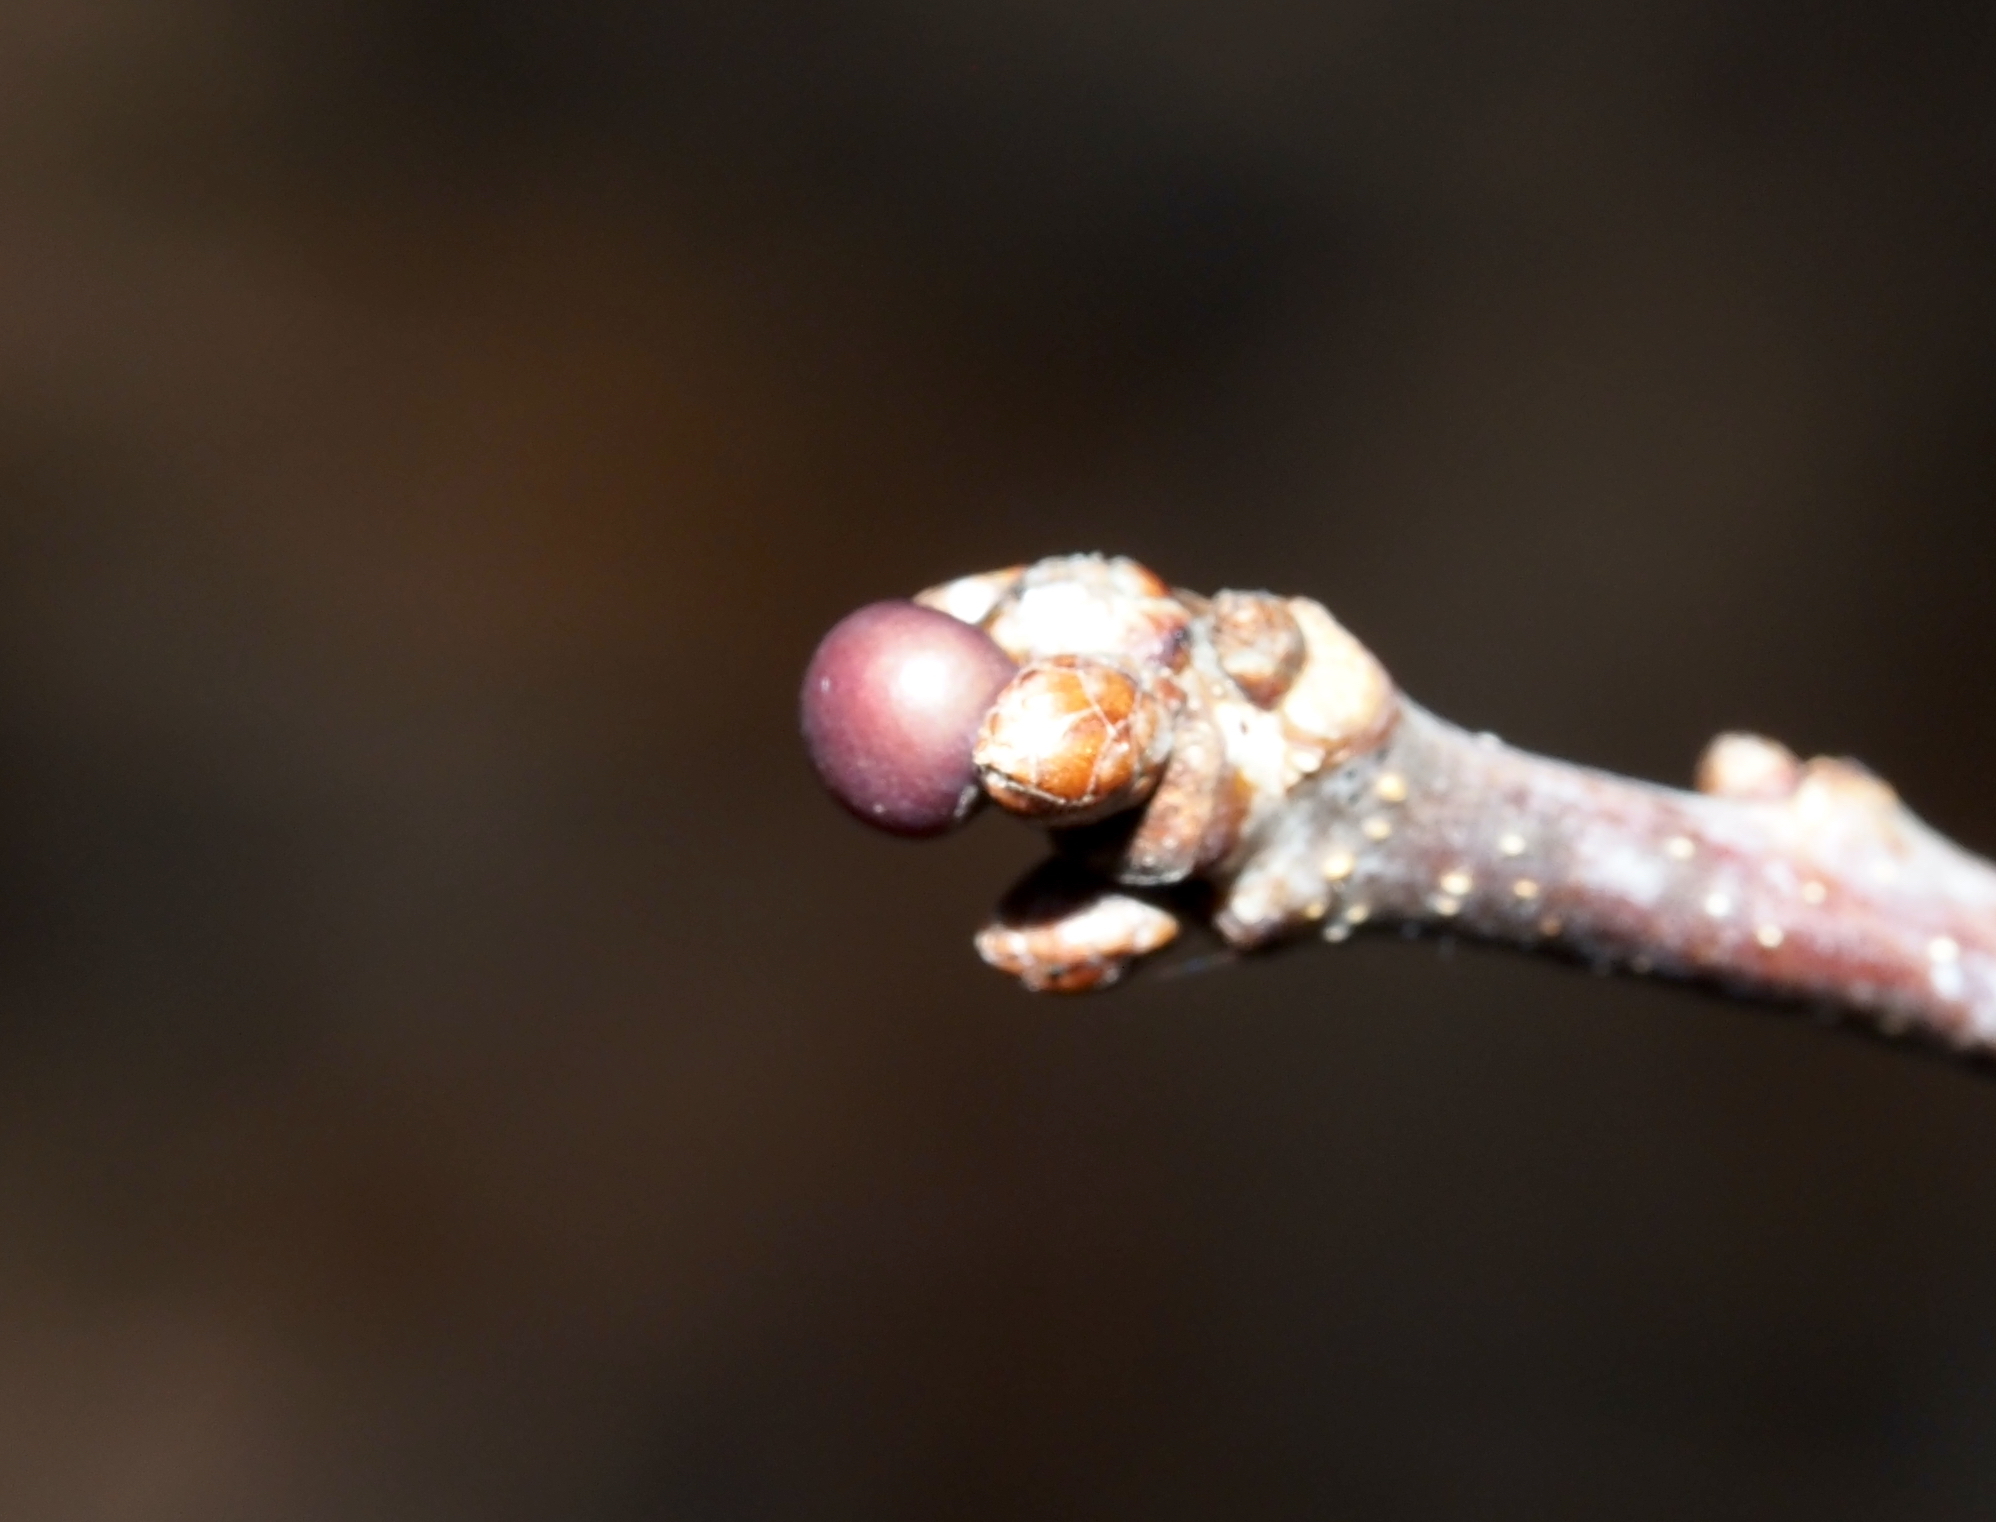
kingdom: Animalia
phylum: Arthropoda
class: Insecta
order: Hymenoptera
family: Cynipidae
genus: Neuroterus
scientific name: Neuroterus
